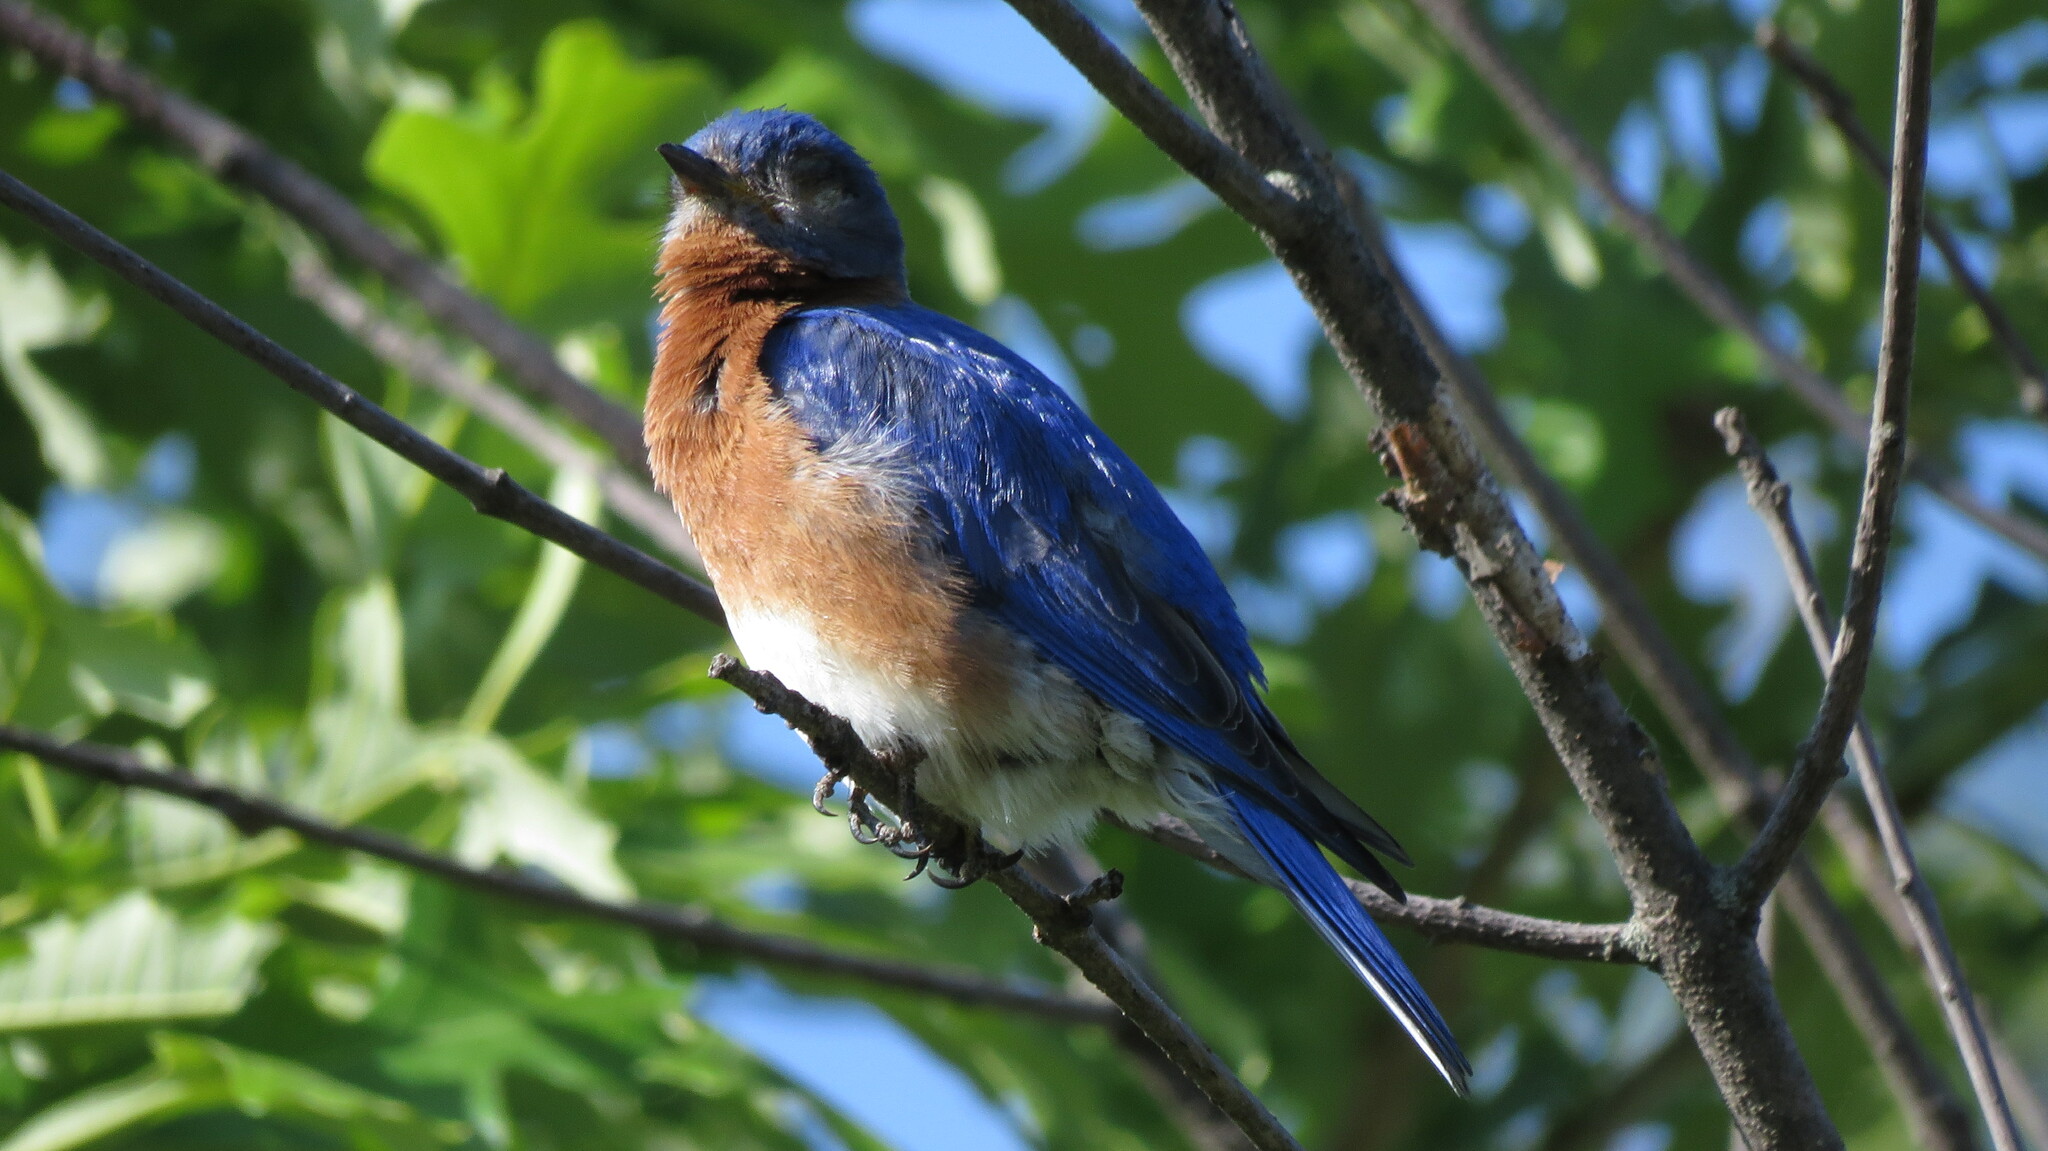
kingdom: Animalia
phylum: Chordata
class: Aves
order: Passeriformes
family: Turdidae
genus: Sialia
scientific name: Sialia sialis
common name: Eastern bluebird
